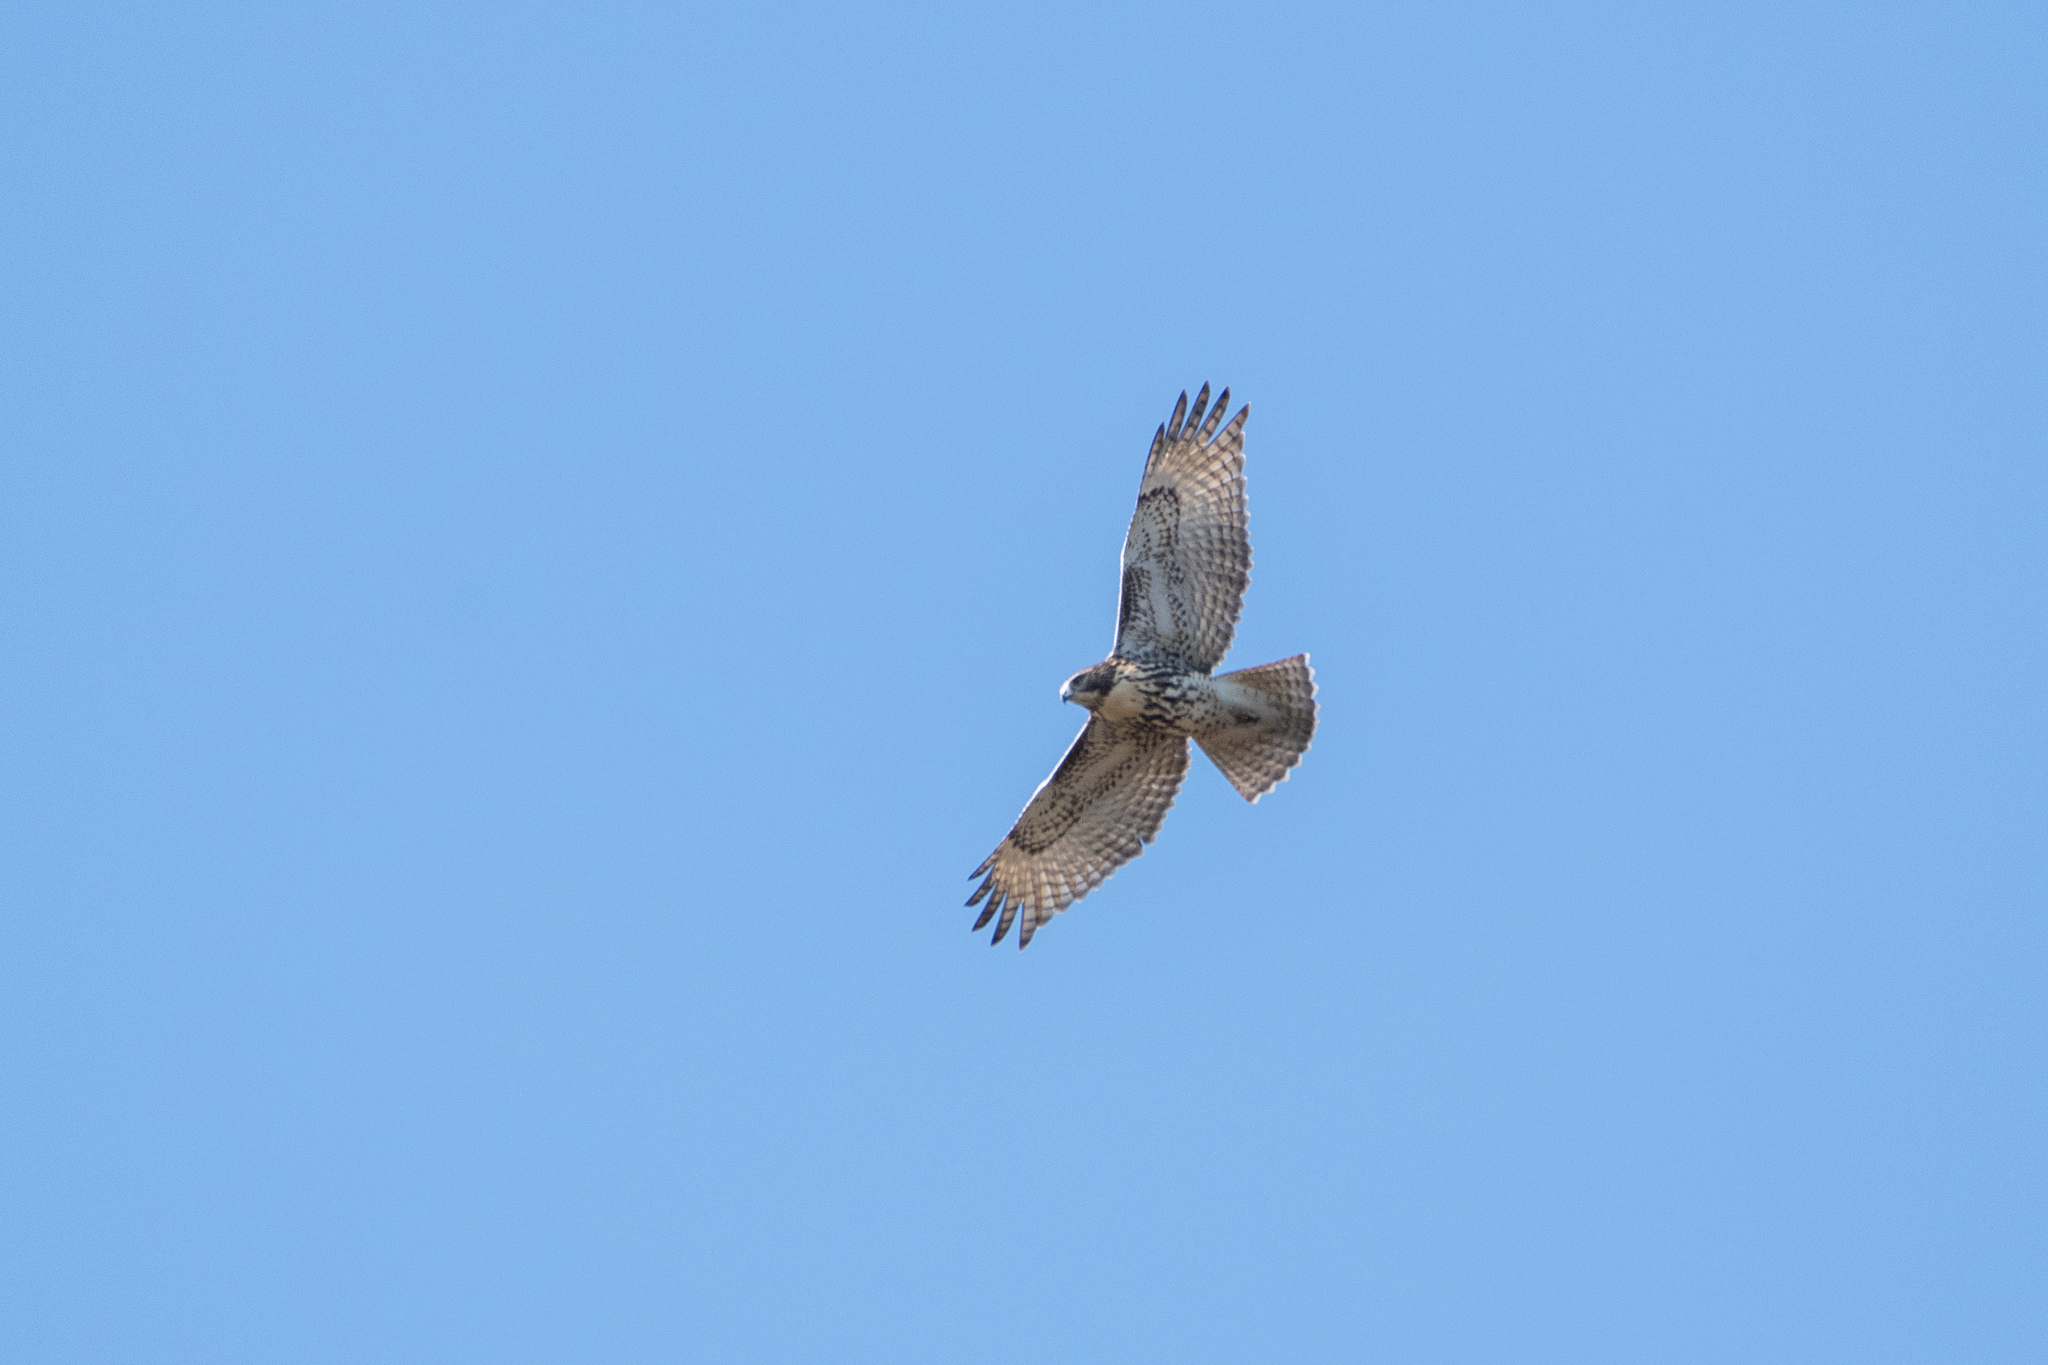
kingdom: Animalia
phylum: Chordata
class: Aves
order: Accipitriformes
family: Accipitridae
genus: Buteo
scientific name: Buteo jamaicensis
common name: Red-tailed hawk
